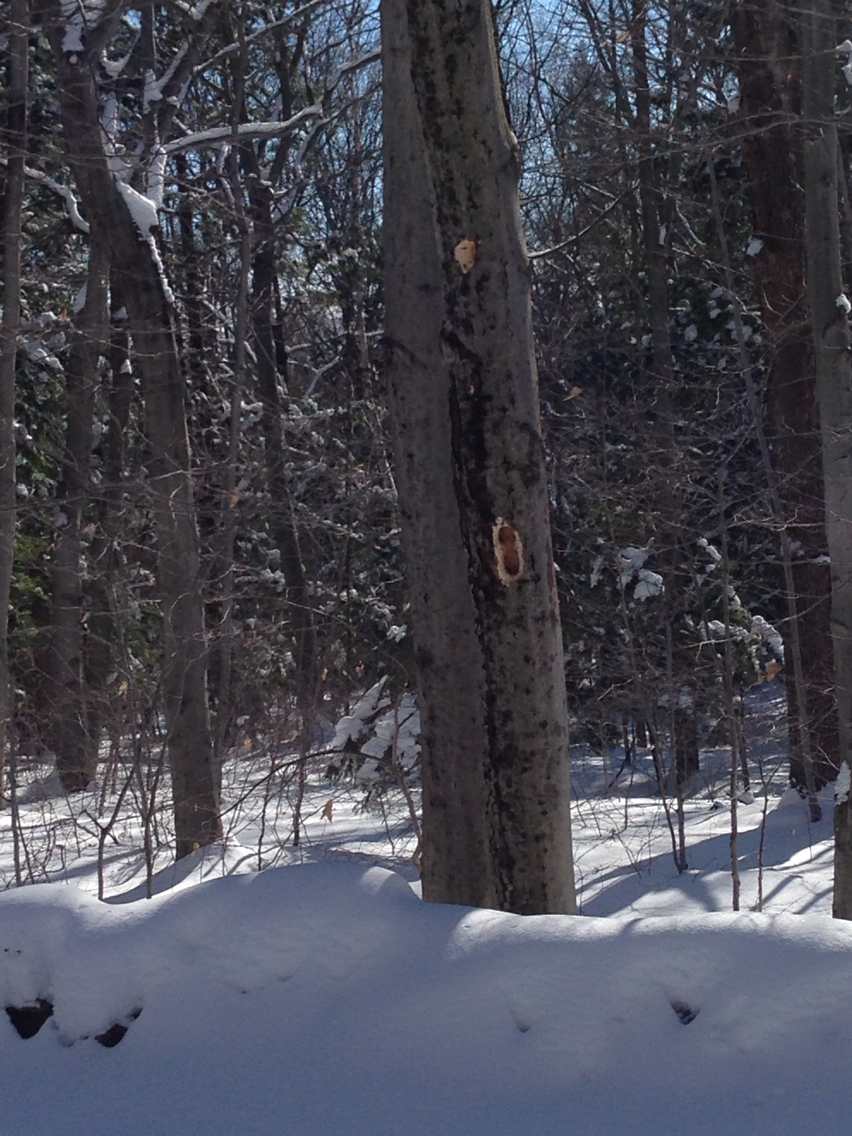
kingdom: Animalia
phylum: Chordata
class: Aves
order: Piciformes
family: Picidae
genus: Dryocopus
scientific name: Dryocopus pileatus
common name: Pileated woodpecker
